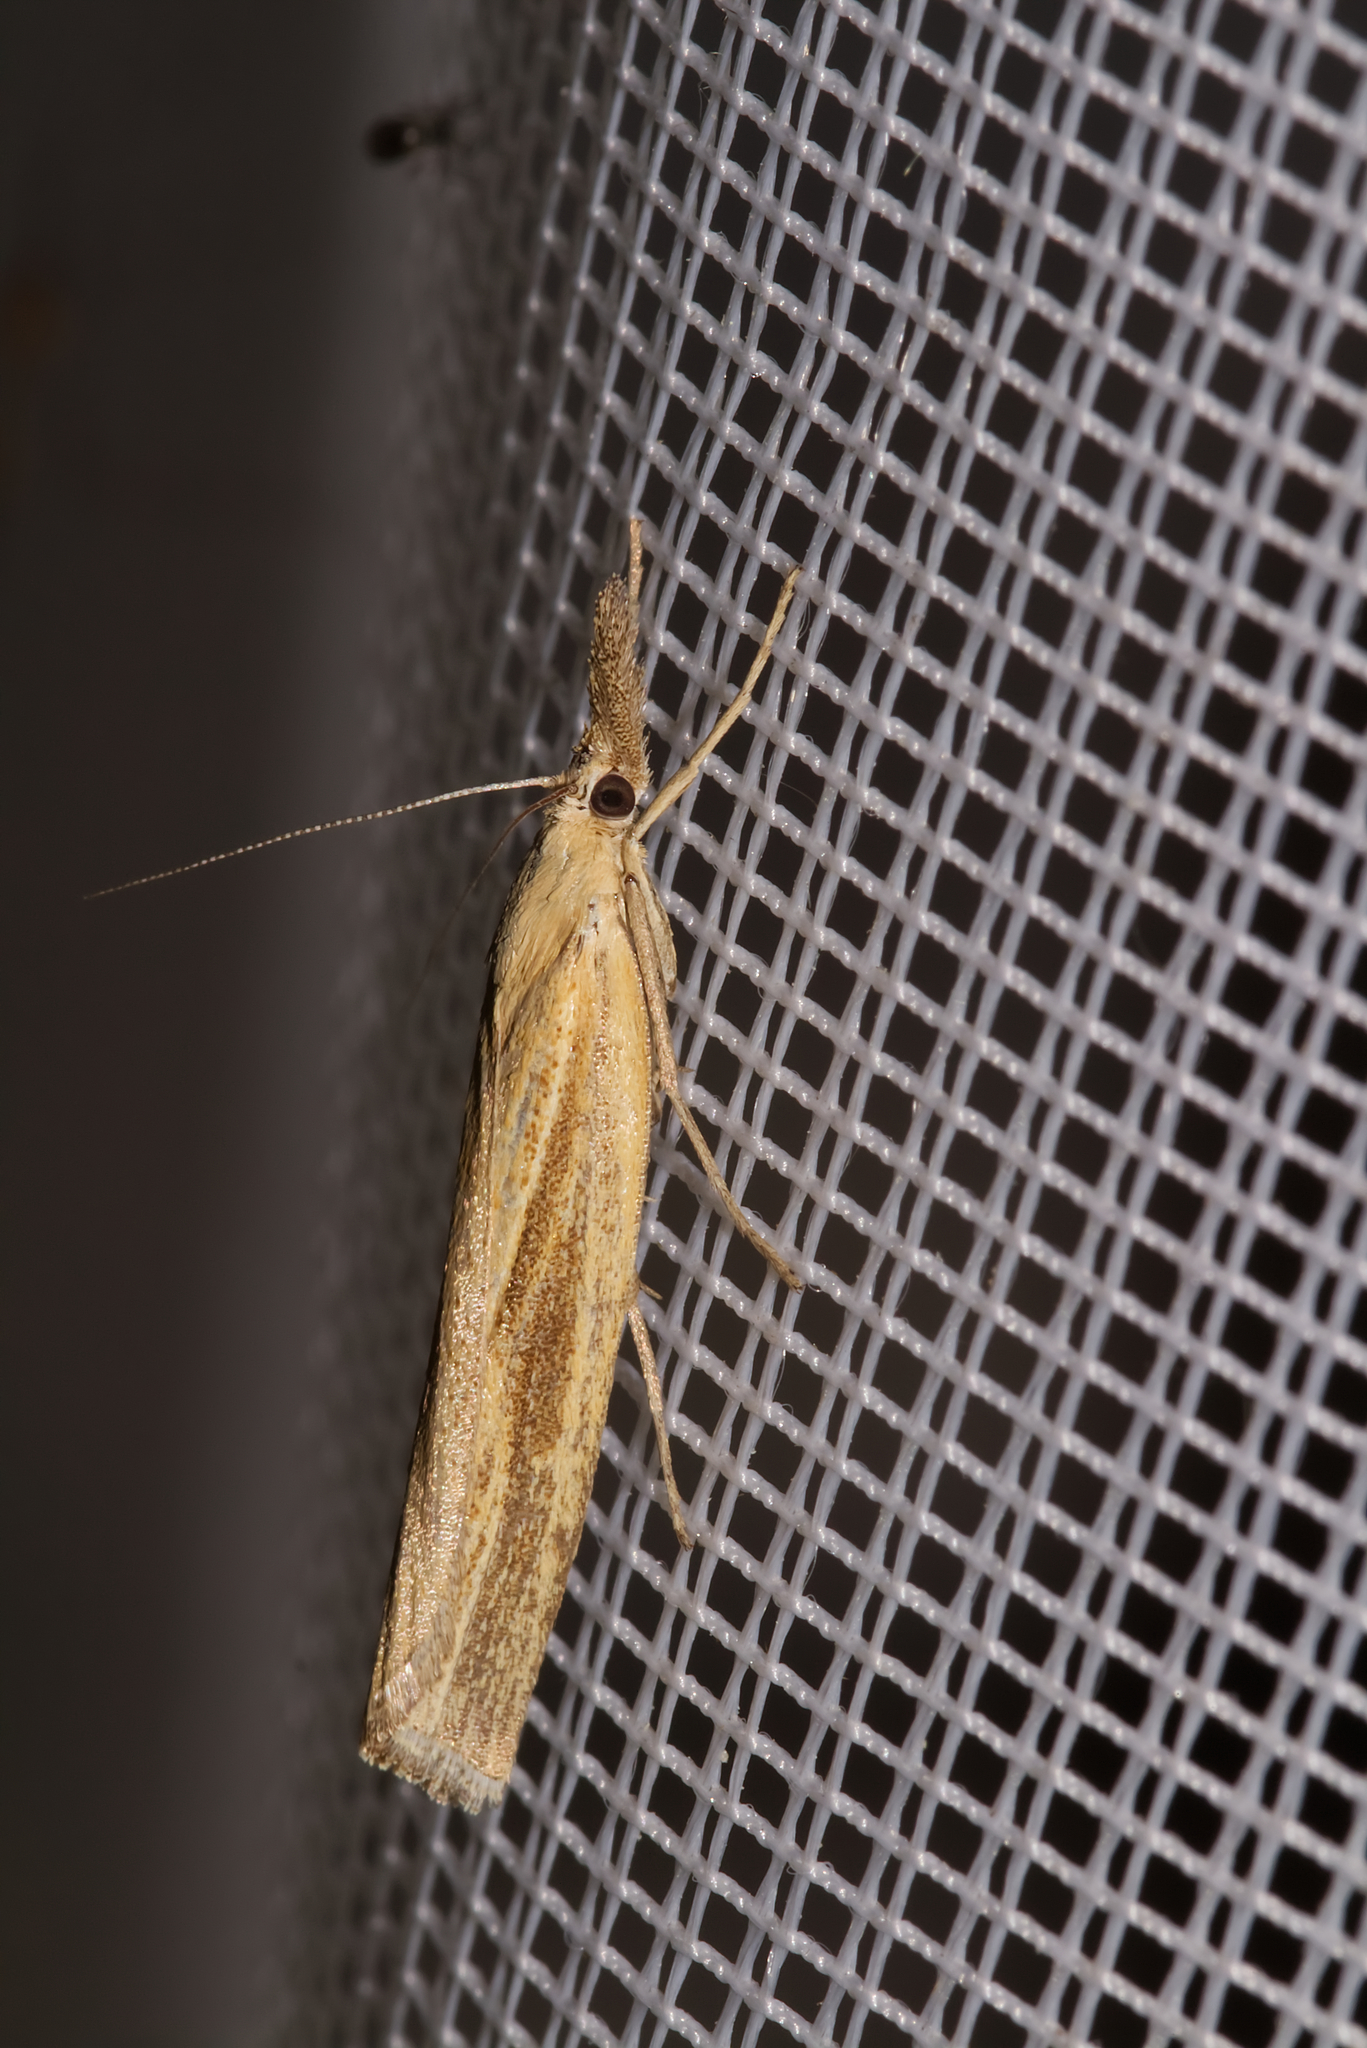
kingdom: Animalia
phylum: Arthropoda
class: Insecta
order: Lepidoptera
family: Crambidae
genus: Agriphila
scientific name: Agriphila tristellus
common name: Common grass-veneer
